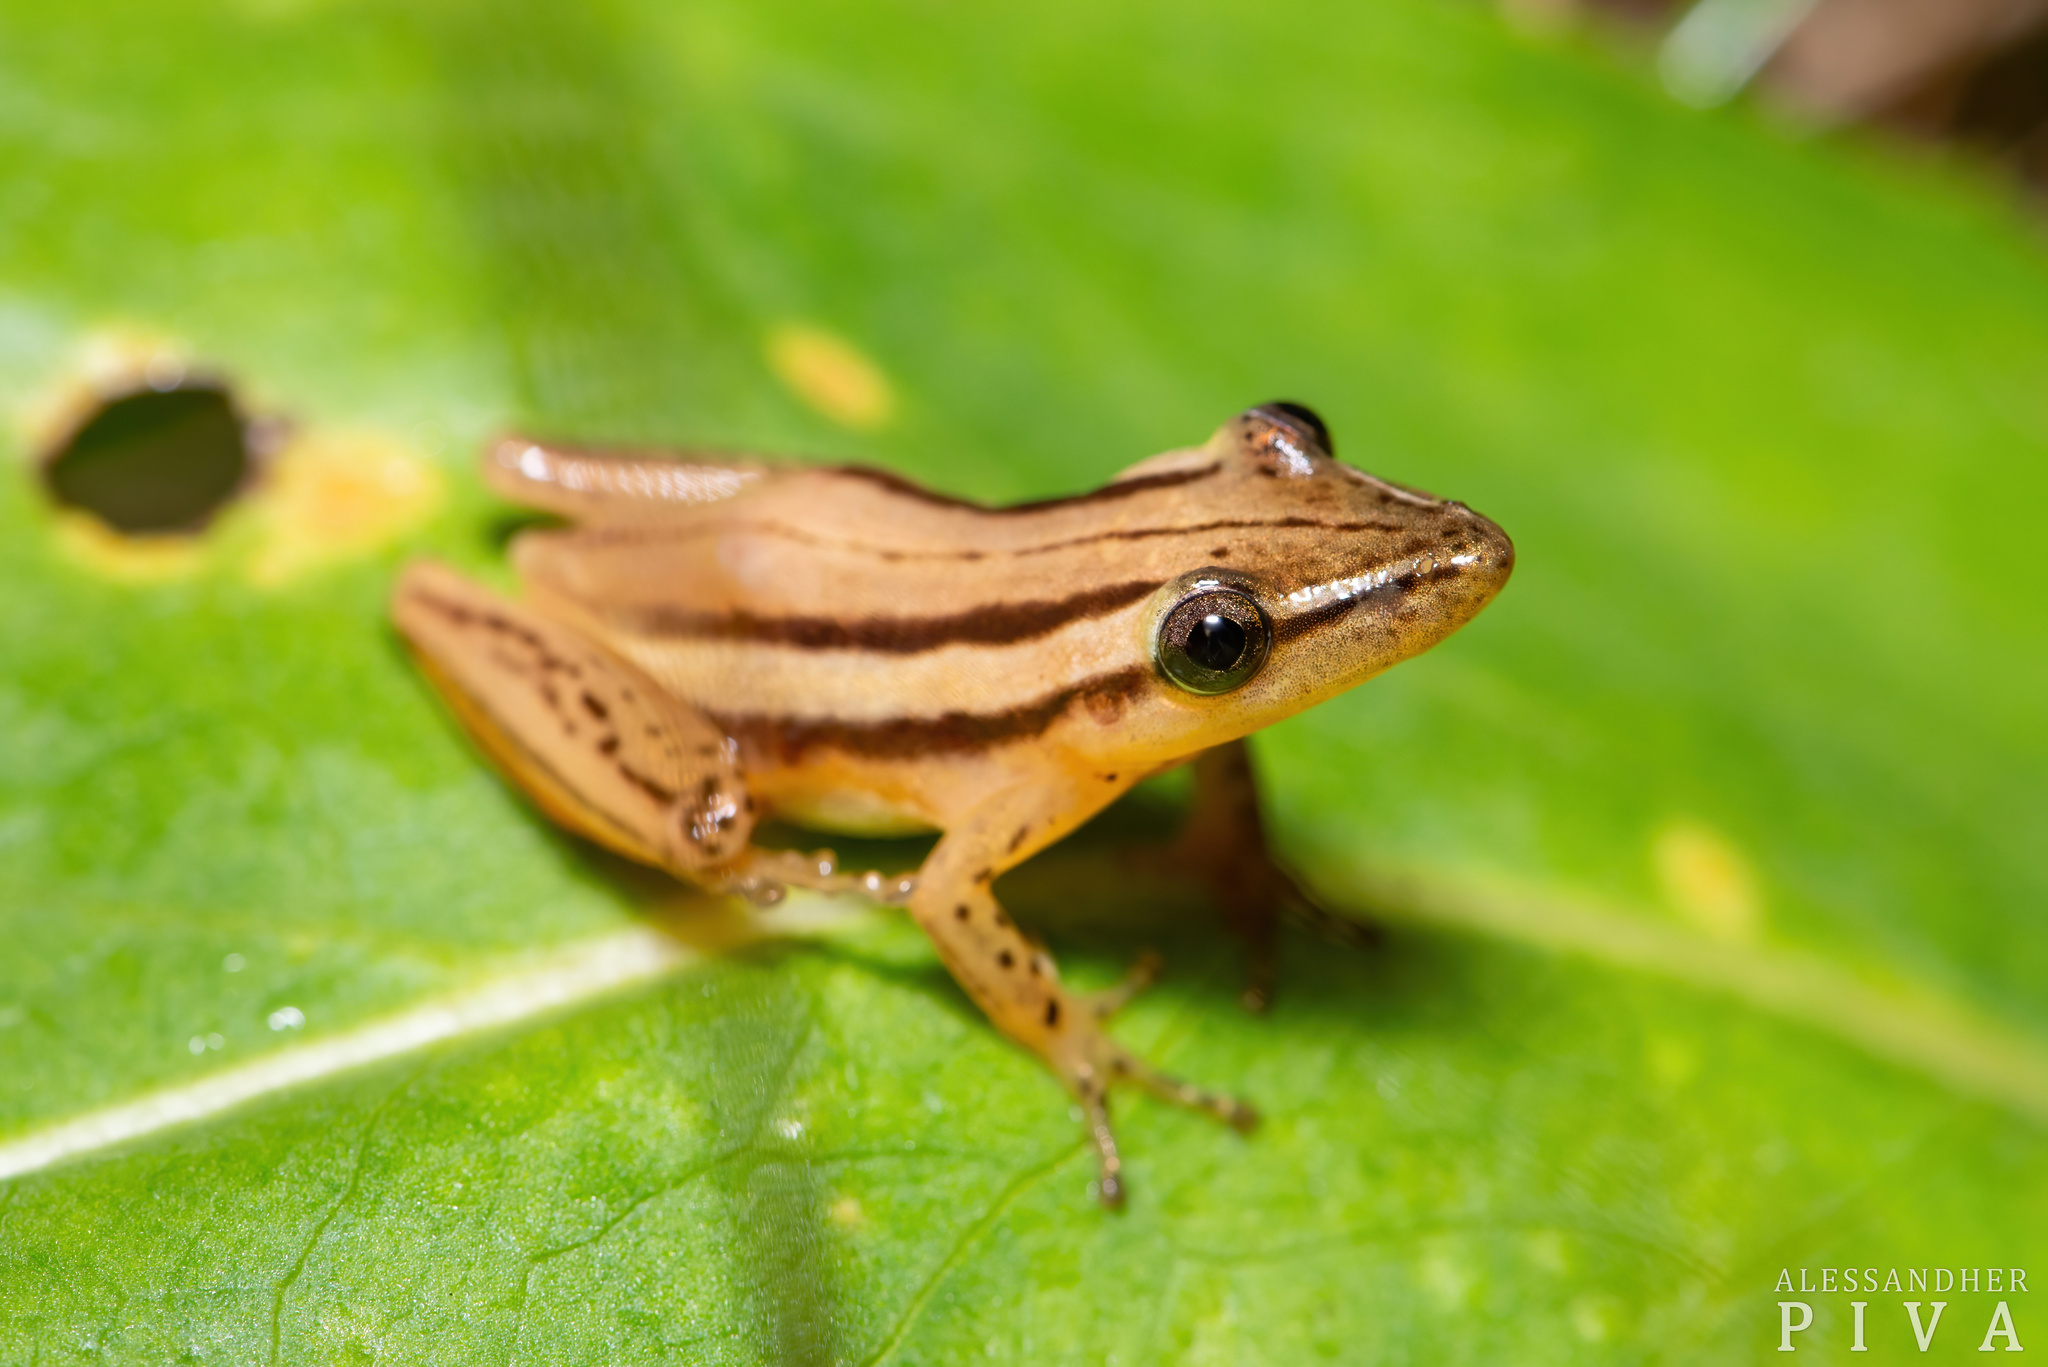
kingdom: Animalia
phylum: Chordata
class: Amphibia
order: Anura
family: Hylidae
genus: Scinax
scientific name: Scinax squalirostris
